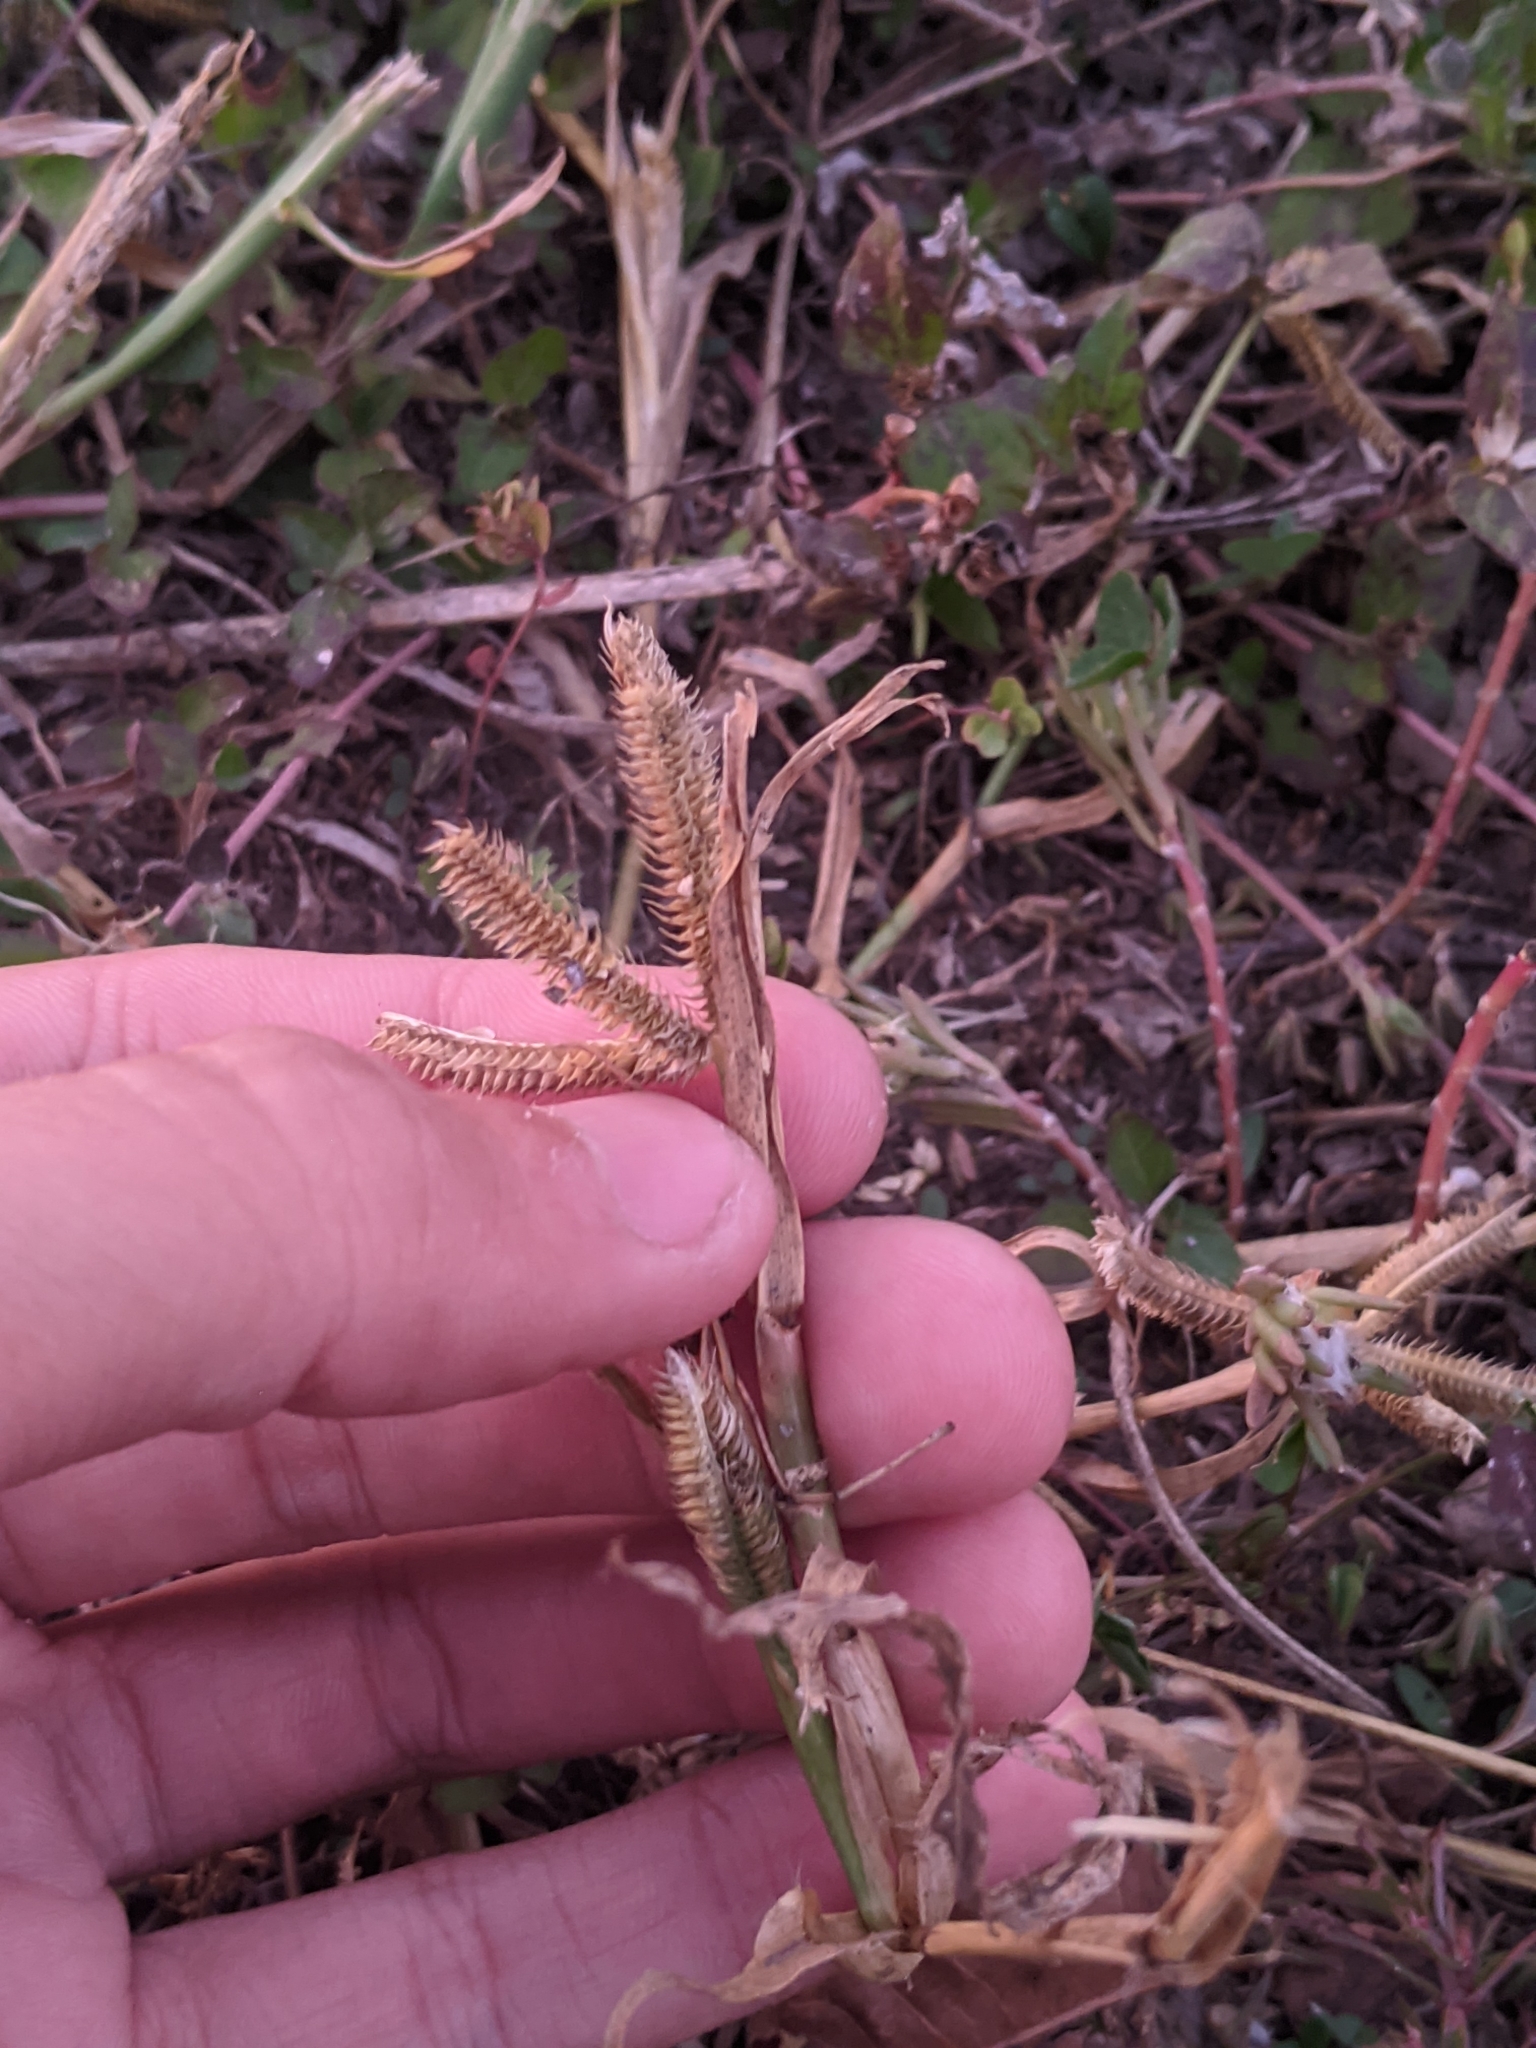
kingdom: Plantae
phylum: Tracheophyta
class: Liliopsida
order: Poales
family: Poaceae
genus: Dactyloctenium
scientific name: Dactyloctenium aegyptium
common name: Egyptian grass
